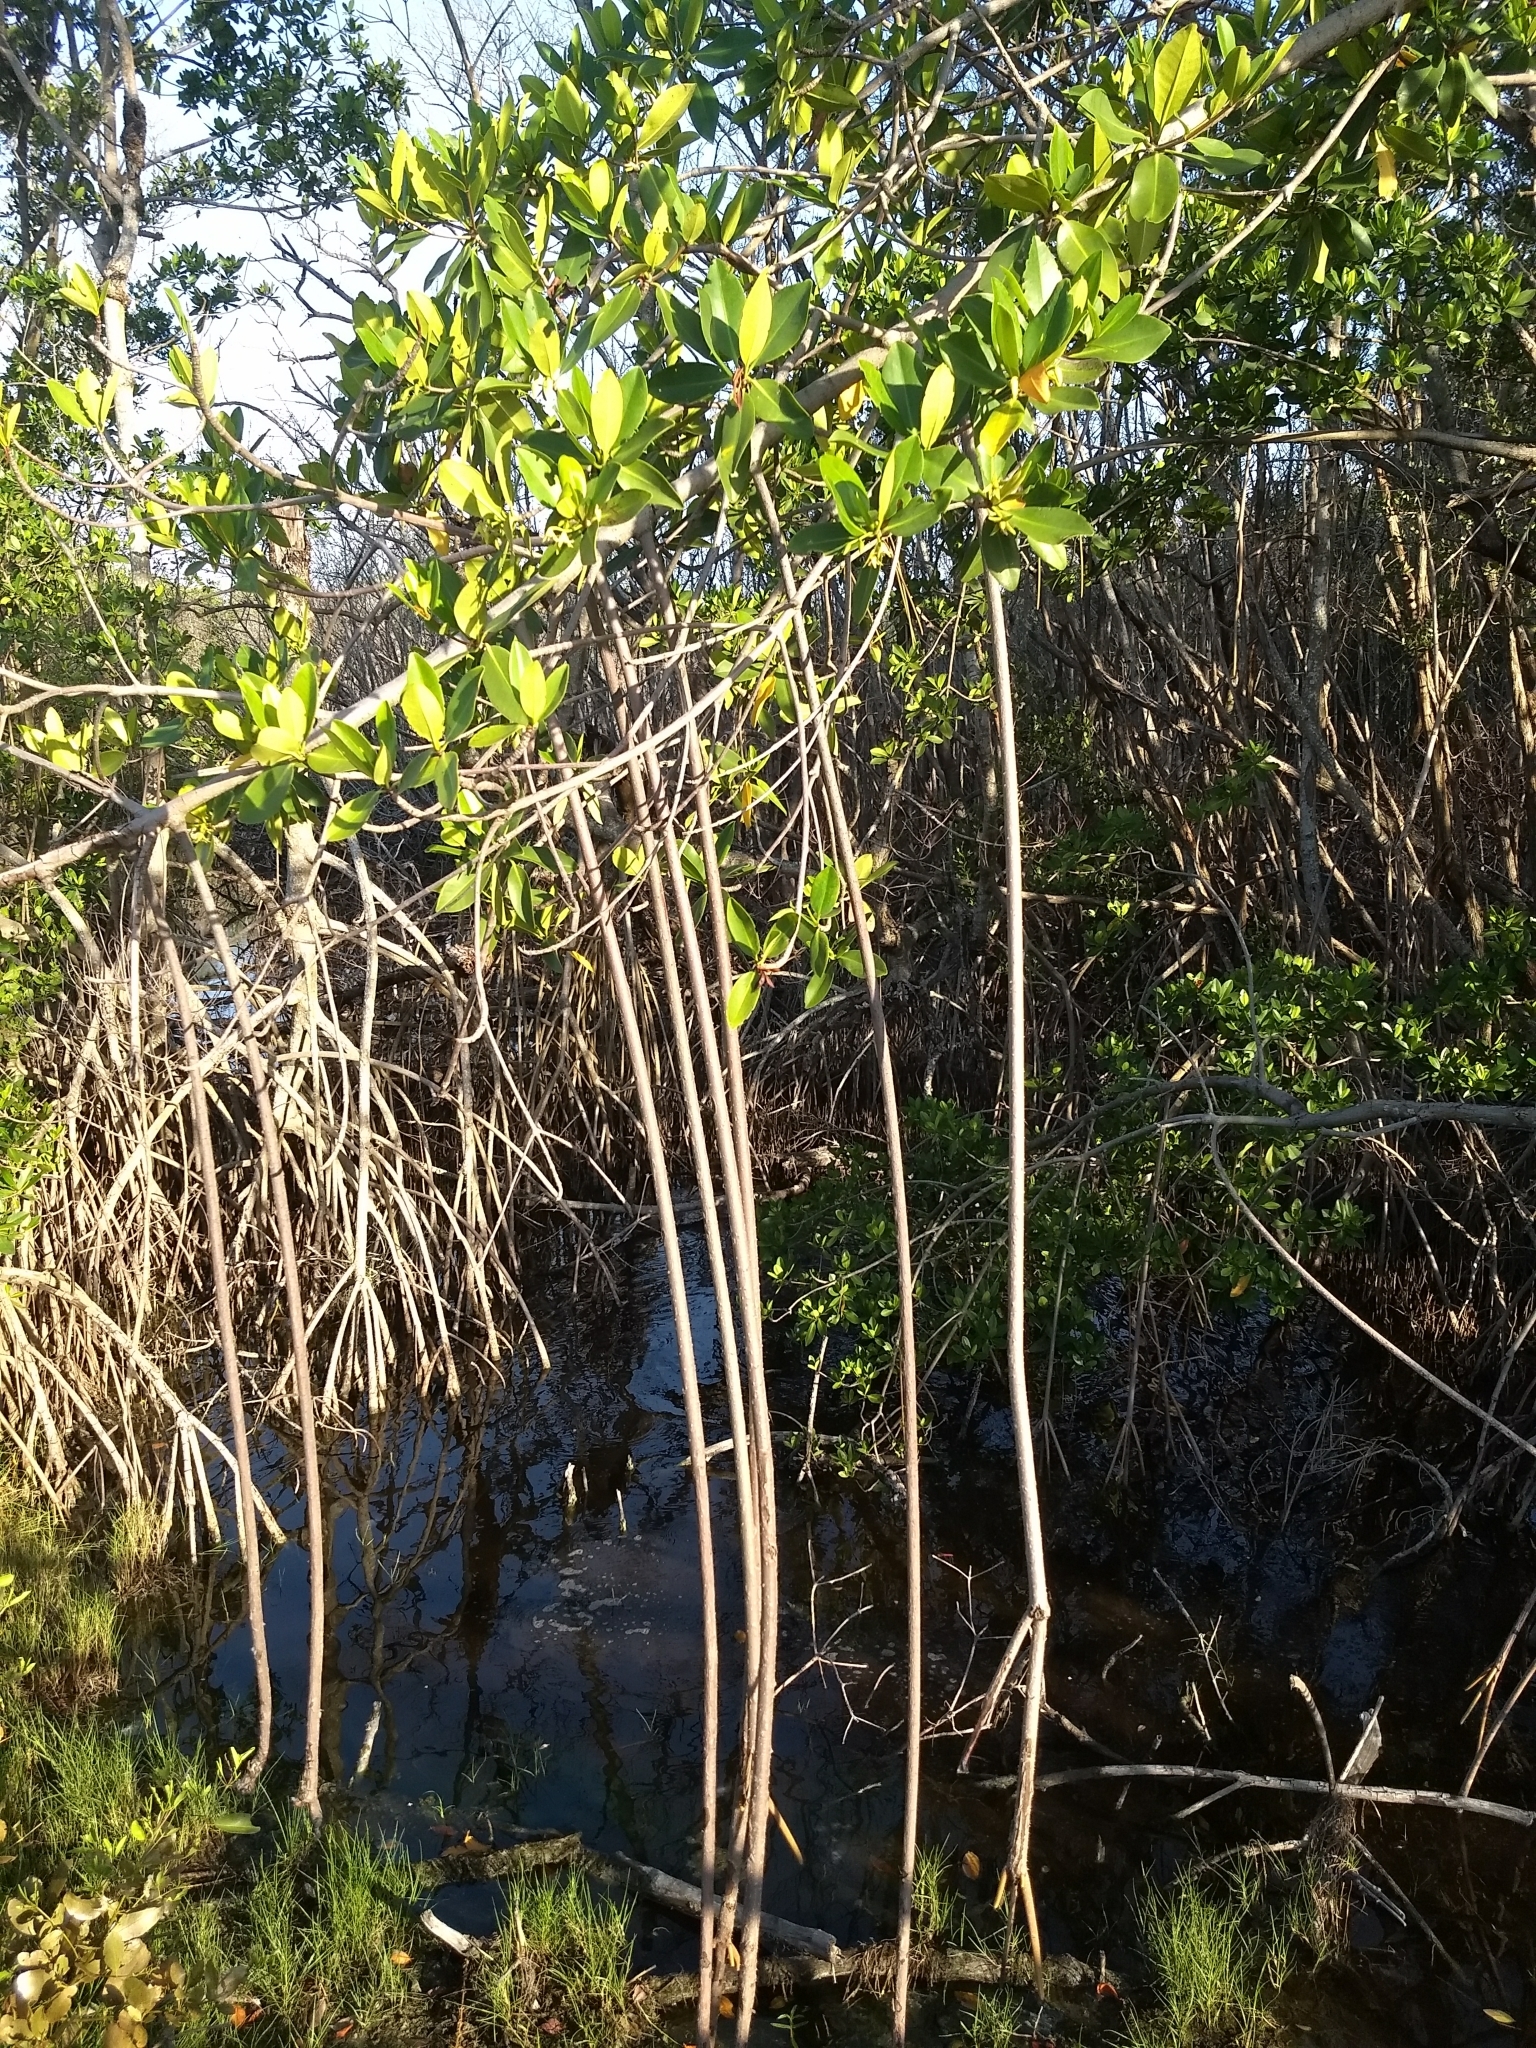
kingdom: Plantae
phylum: Tracheophyta
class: Magnoliopsida
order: Malpighiales
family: Rhizophoraceae
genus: Rhizophora
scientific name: Rhizophora mangle
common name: Red mangrove
